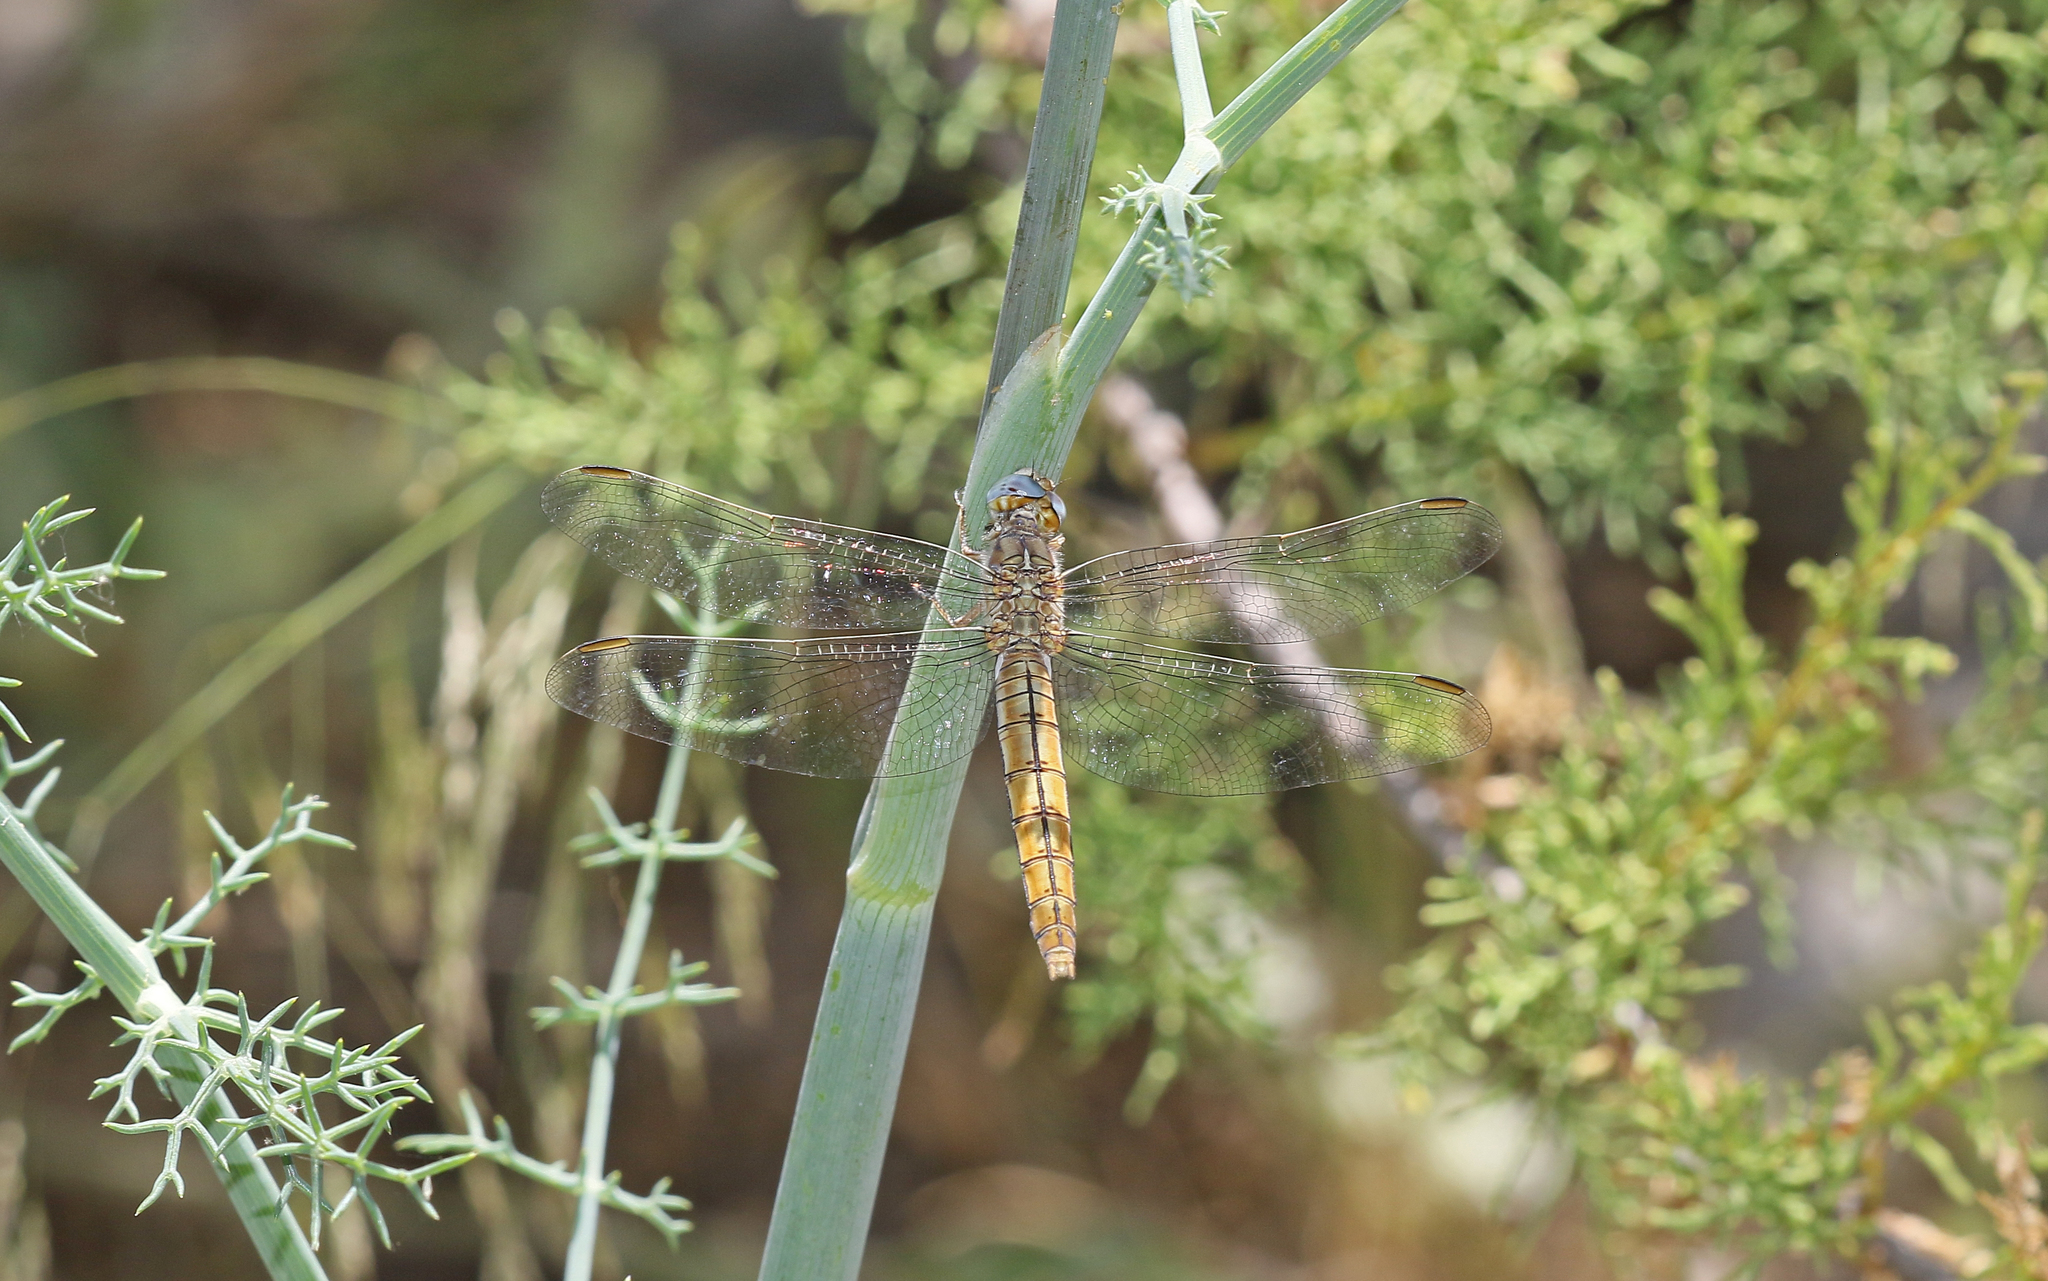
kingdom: Animalia
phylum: Arthropoda
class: Insecta
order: Odonata
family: Libellulidae
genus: Orthetrum
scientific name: Orthetrum brunneum
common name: Southern skimmer
